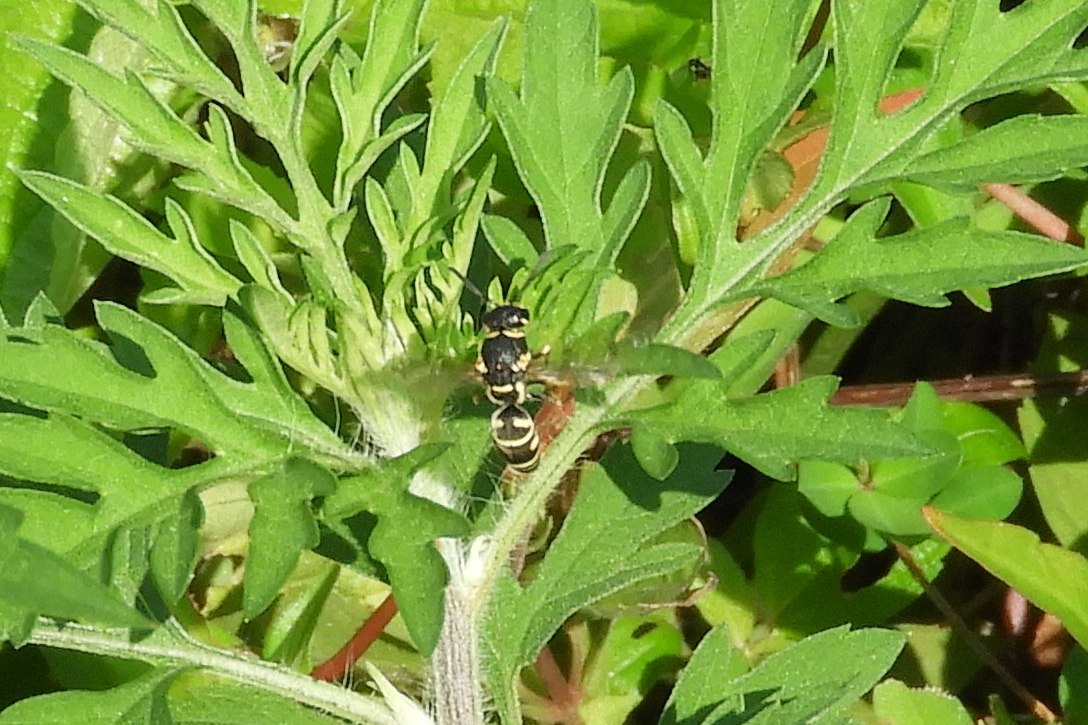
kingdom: Animalia
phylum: Arthropoda
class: Insecta
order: Hymenoptera
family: Eumenidae
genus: Parancistrocerus
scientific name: Parancistrocerus leionotus
